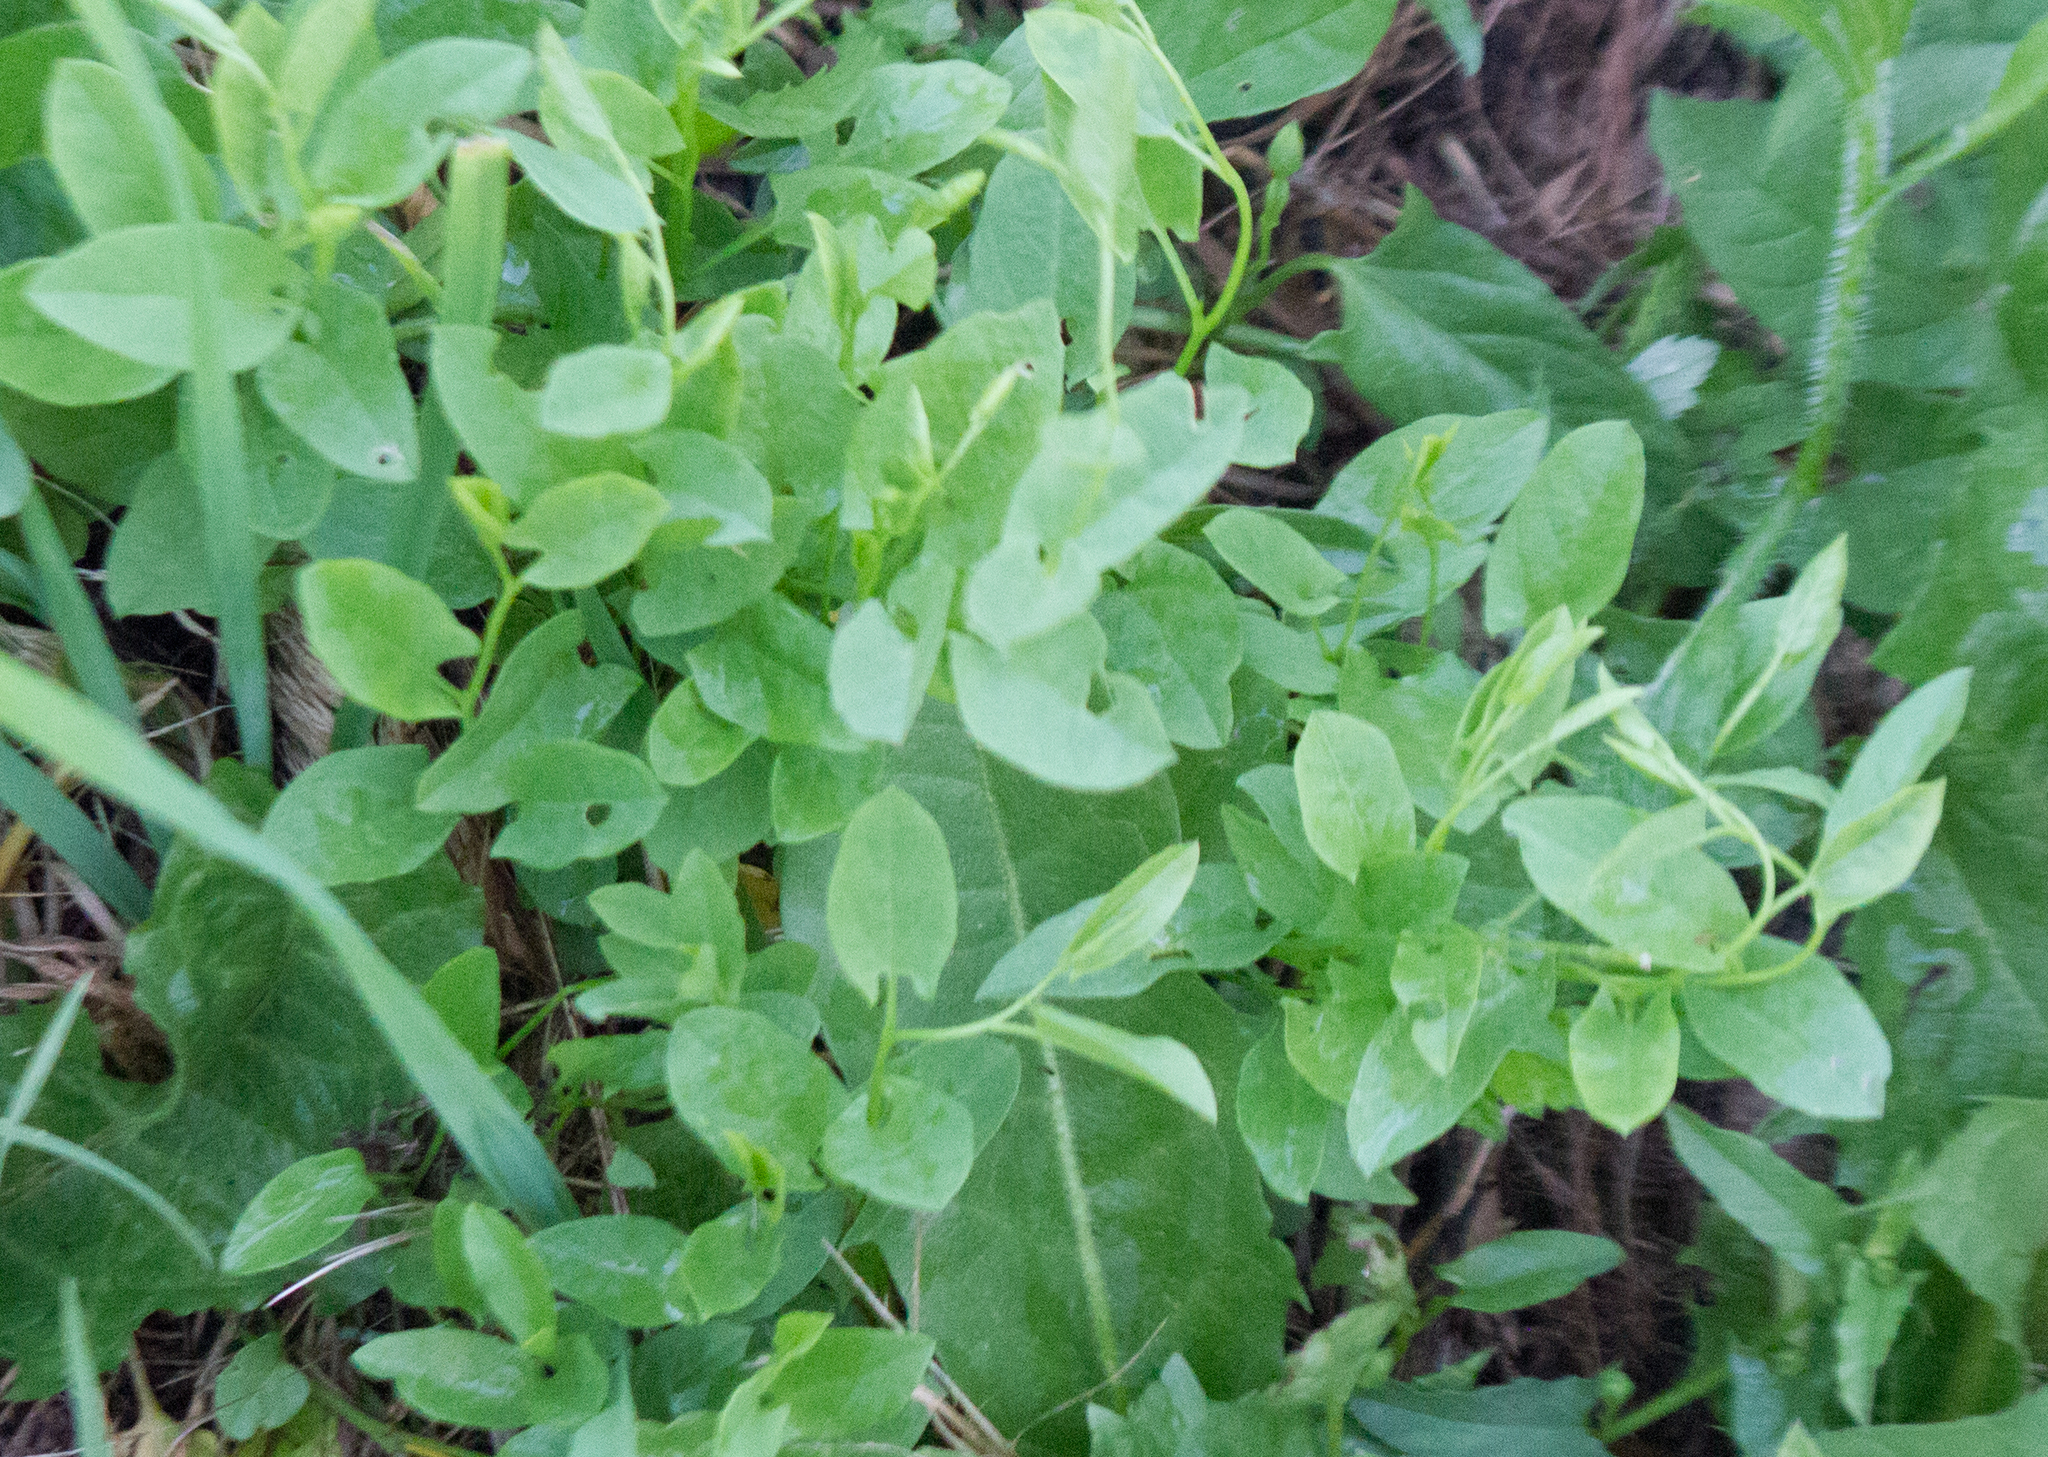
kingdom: Plantae
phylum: Tracheophyta
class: Magnoliopsida
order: Solanales
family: Convolvulaceae
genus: Convolvulus
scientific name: Convolvulus arvensis
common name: Field bindweed
